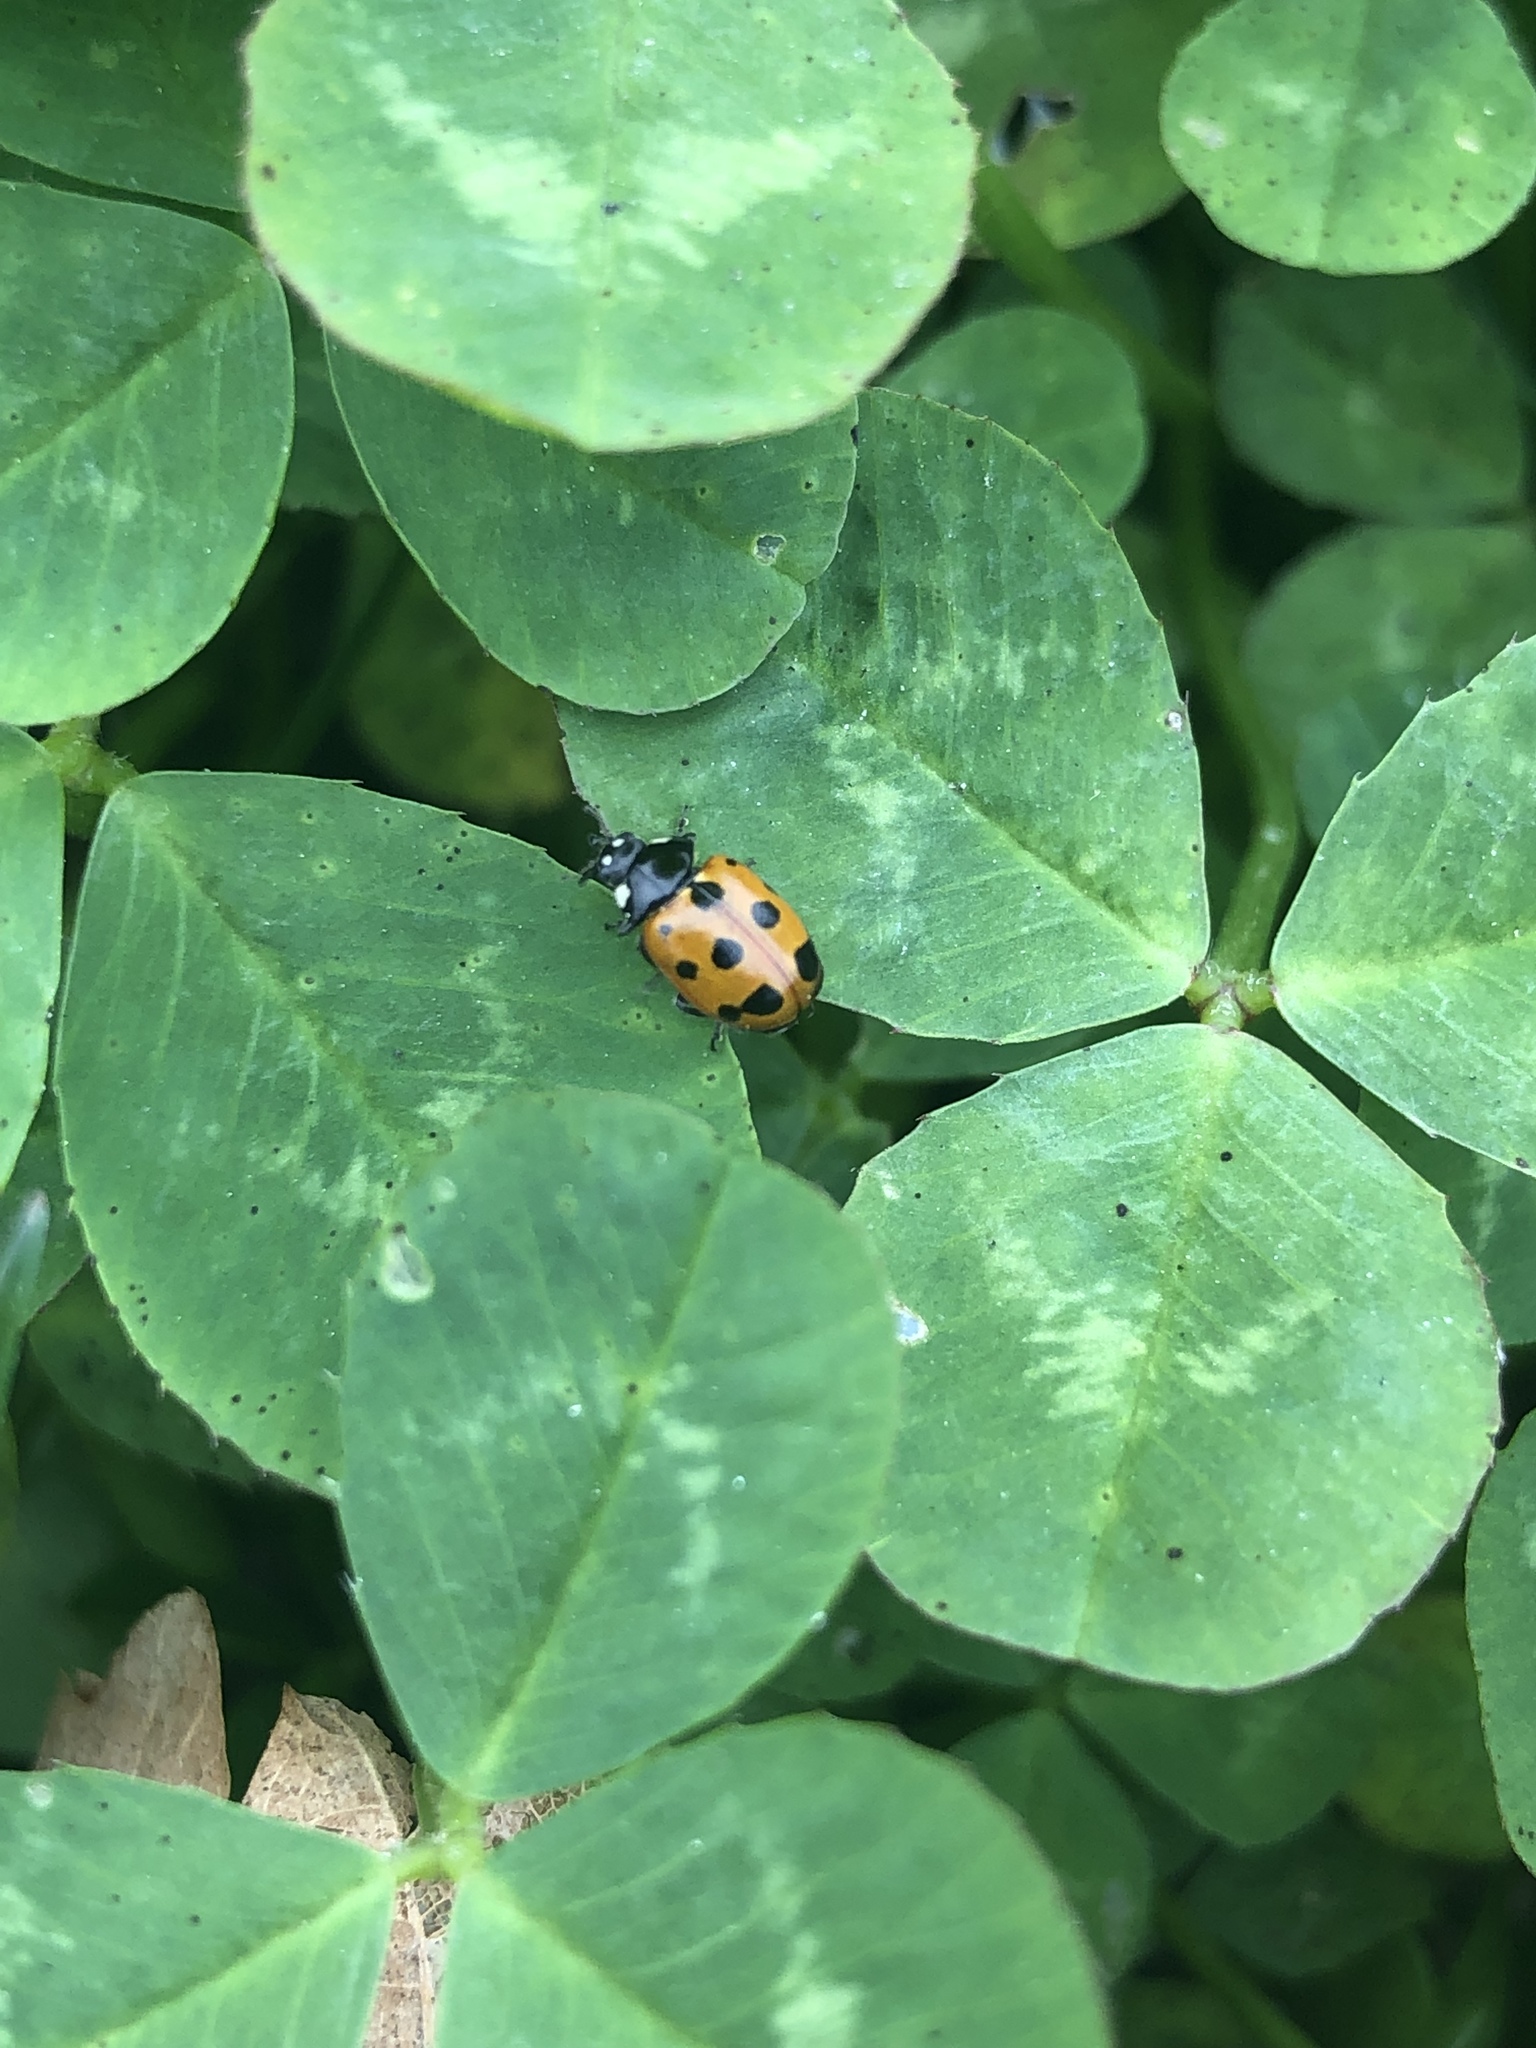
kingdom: Animalia
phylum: Arthropoda
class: Insecta
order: Coleoptera
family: Coccinellidae
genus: Coccinella
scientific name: Coccinella undecimpunctata
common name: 11-spot ladybird
